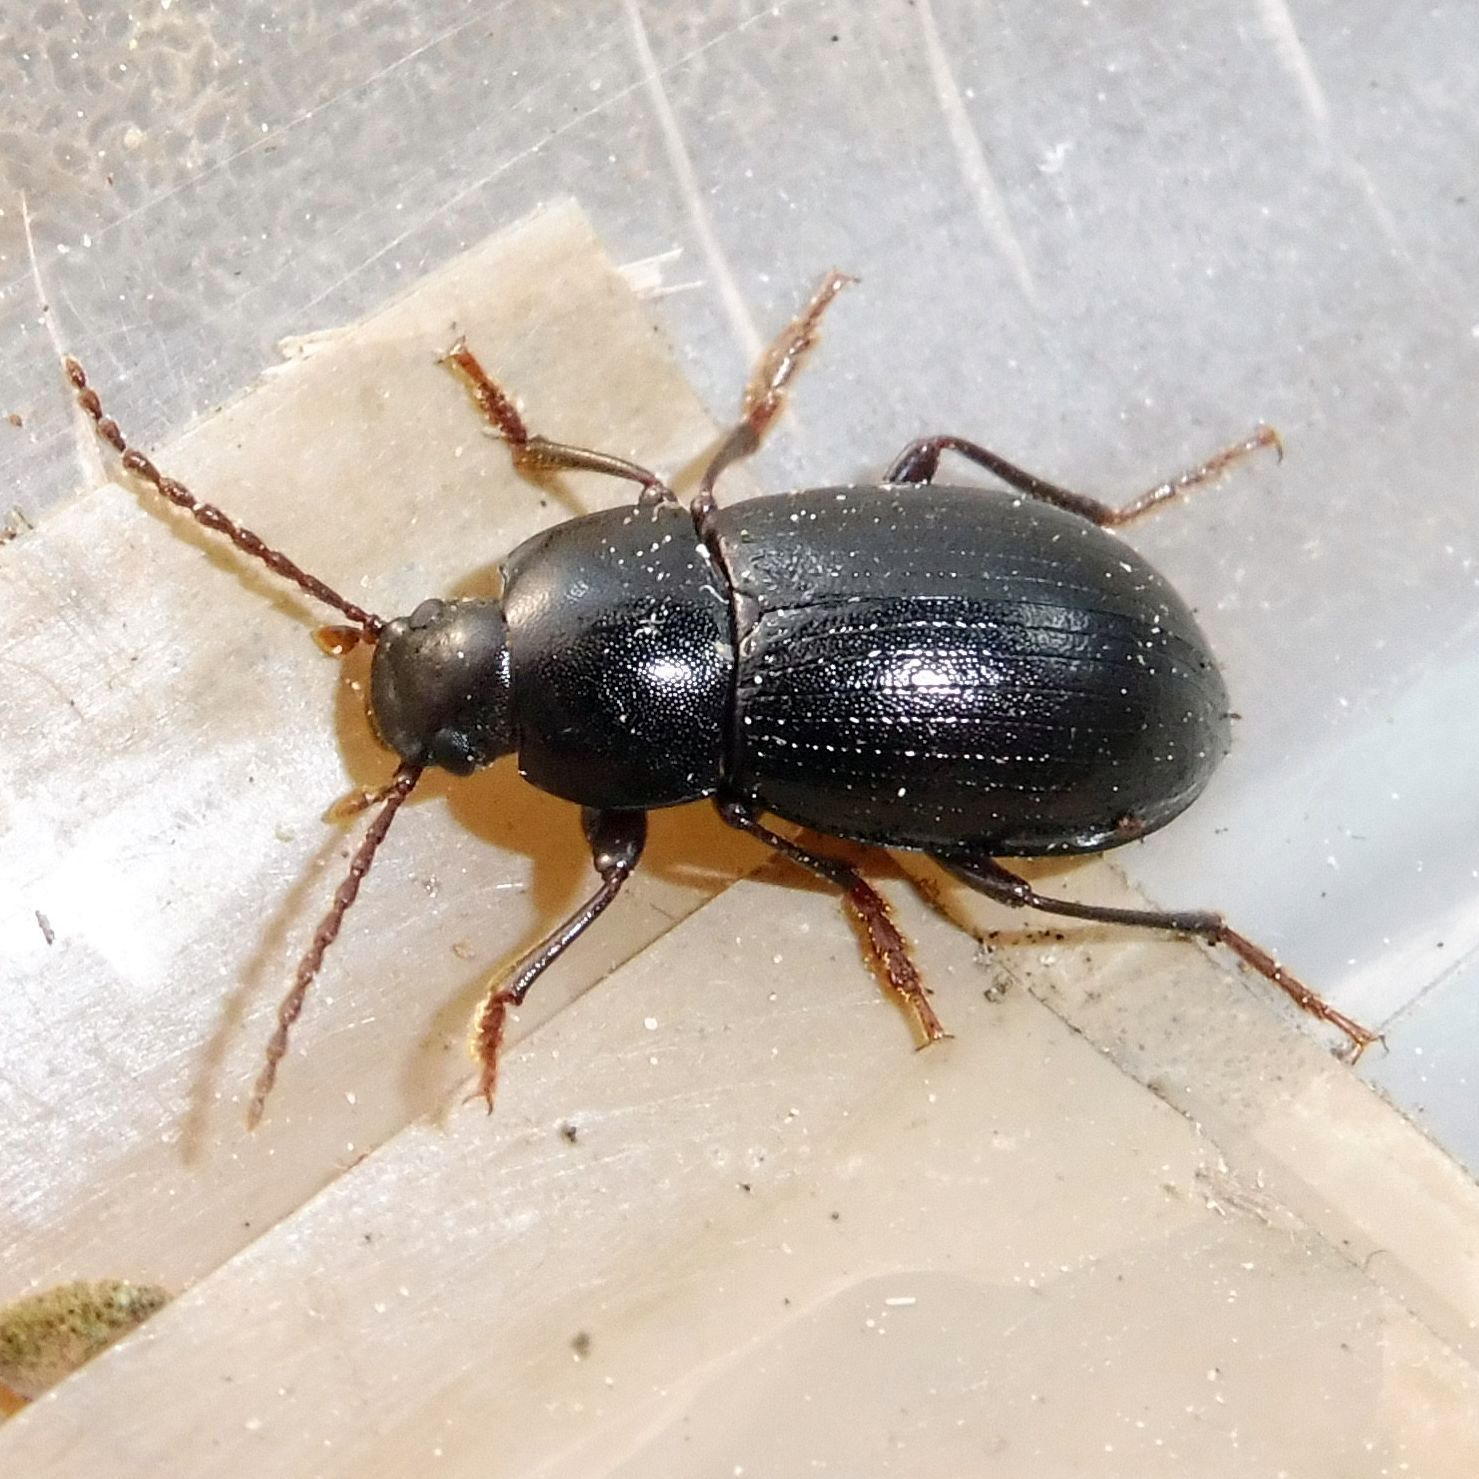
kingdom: Animalia
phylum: Arthropoda
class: Insecta
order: Coleoptera
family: Tenebrionidae
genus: Nalassus
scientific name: Nalassus laevioctostriatus
